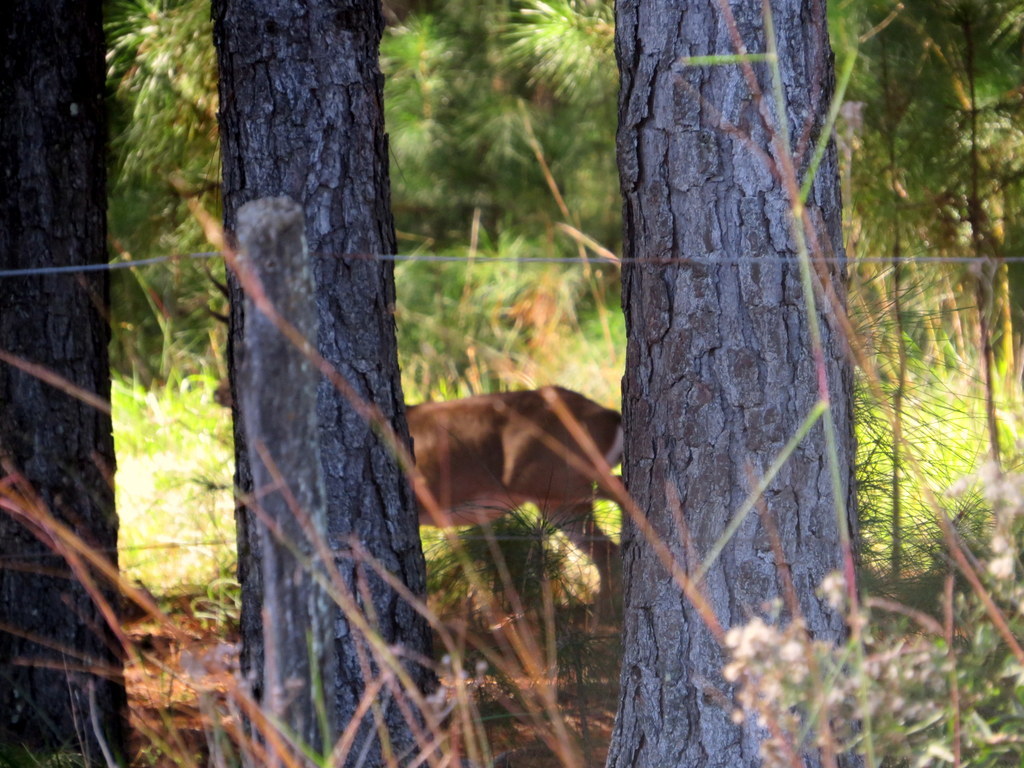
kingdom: Animalia
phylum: Chordata
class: Mammalia
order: Artiodactyla
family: Cervidae
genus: Ozotoceros
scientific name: Ozotoceros bezoarticus
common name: Pampas deer
